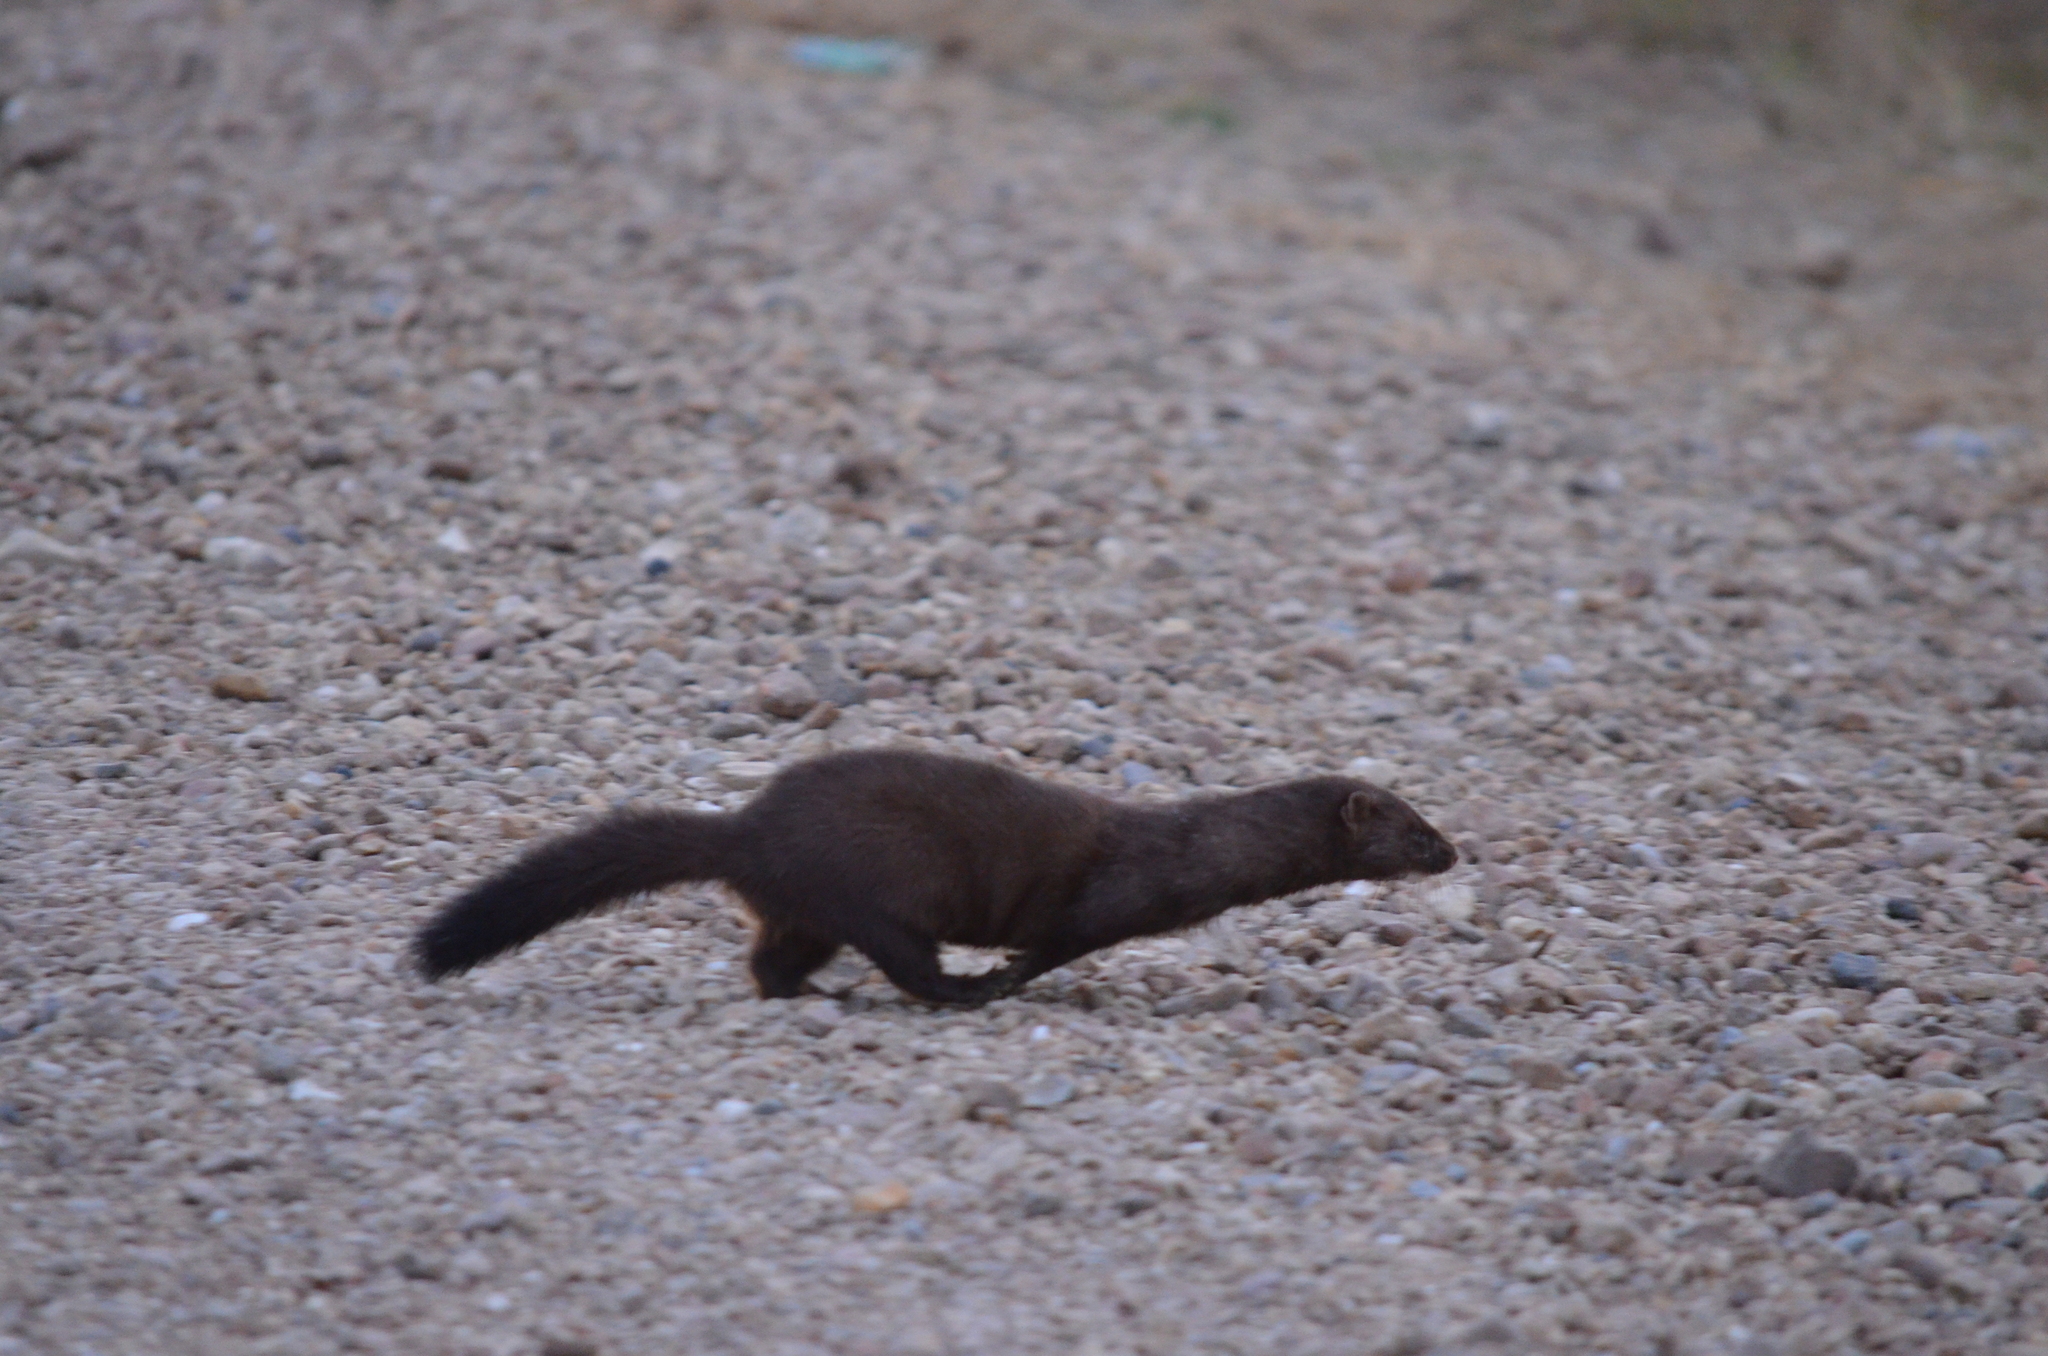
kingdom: Animalia
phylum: Chordata
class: Mammalia
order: Carnivora
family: Mustelidae
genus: Mustela
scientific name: Mustela
